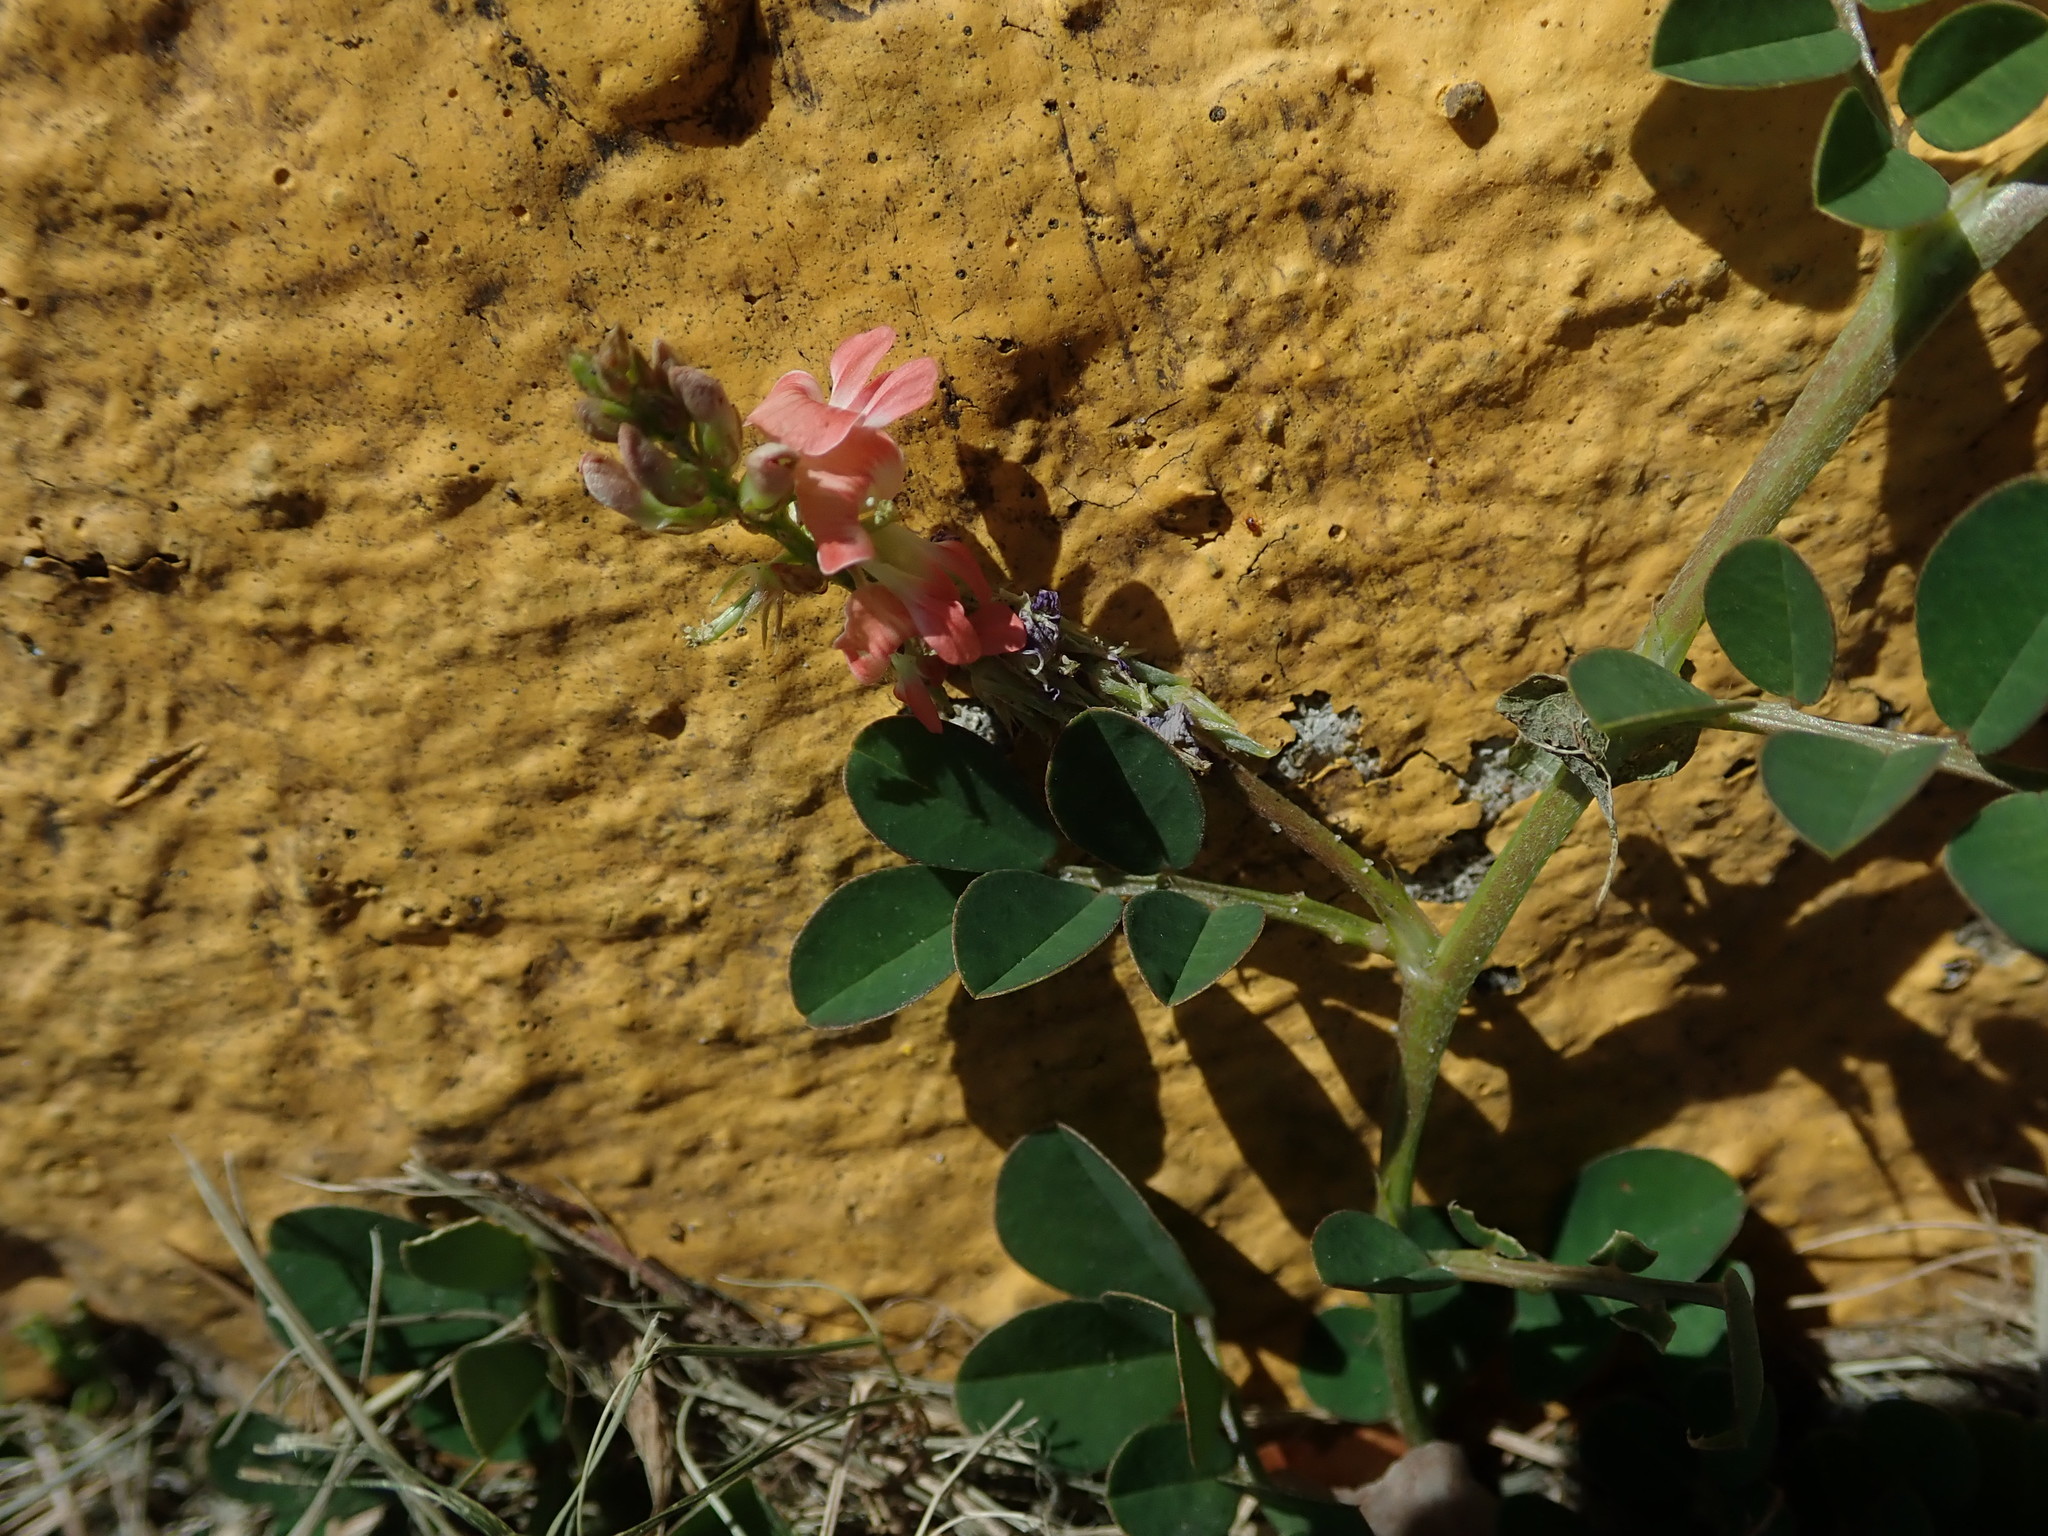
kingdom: Plantae
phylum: Tracheophyta
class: Magnoliopsida
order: Fabales
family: Fabaceae
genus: Indigofera
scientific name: Indigofera spicata
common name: Creeping indigo
